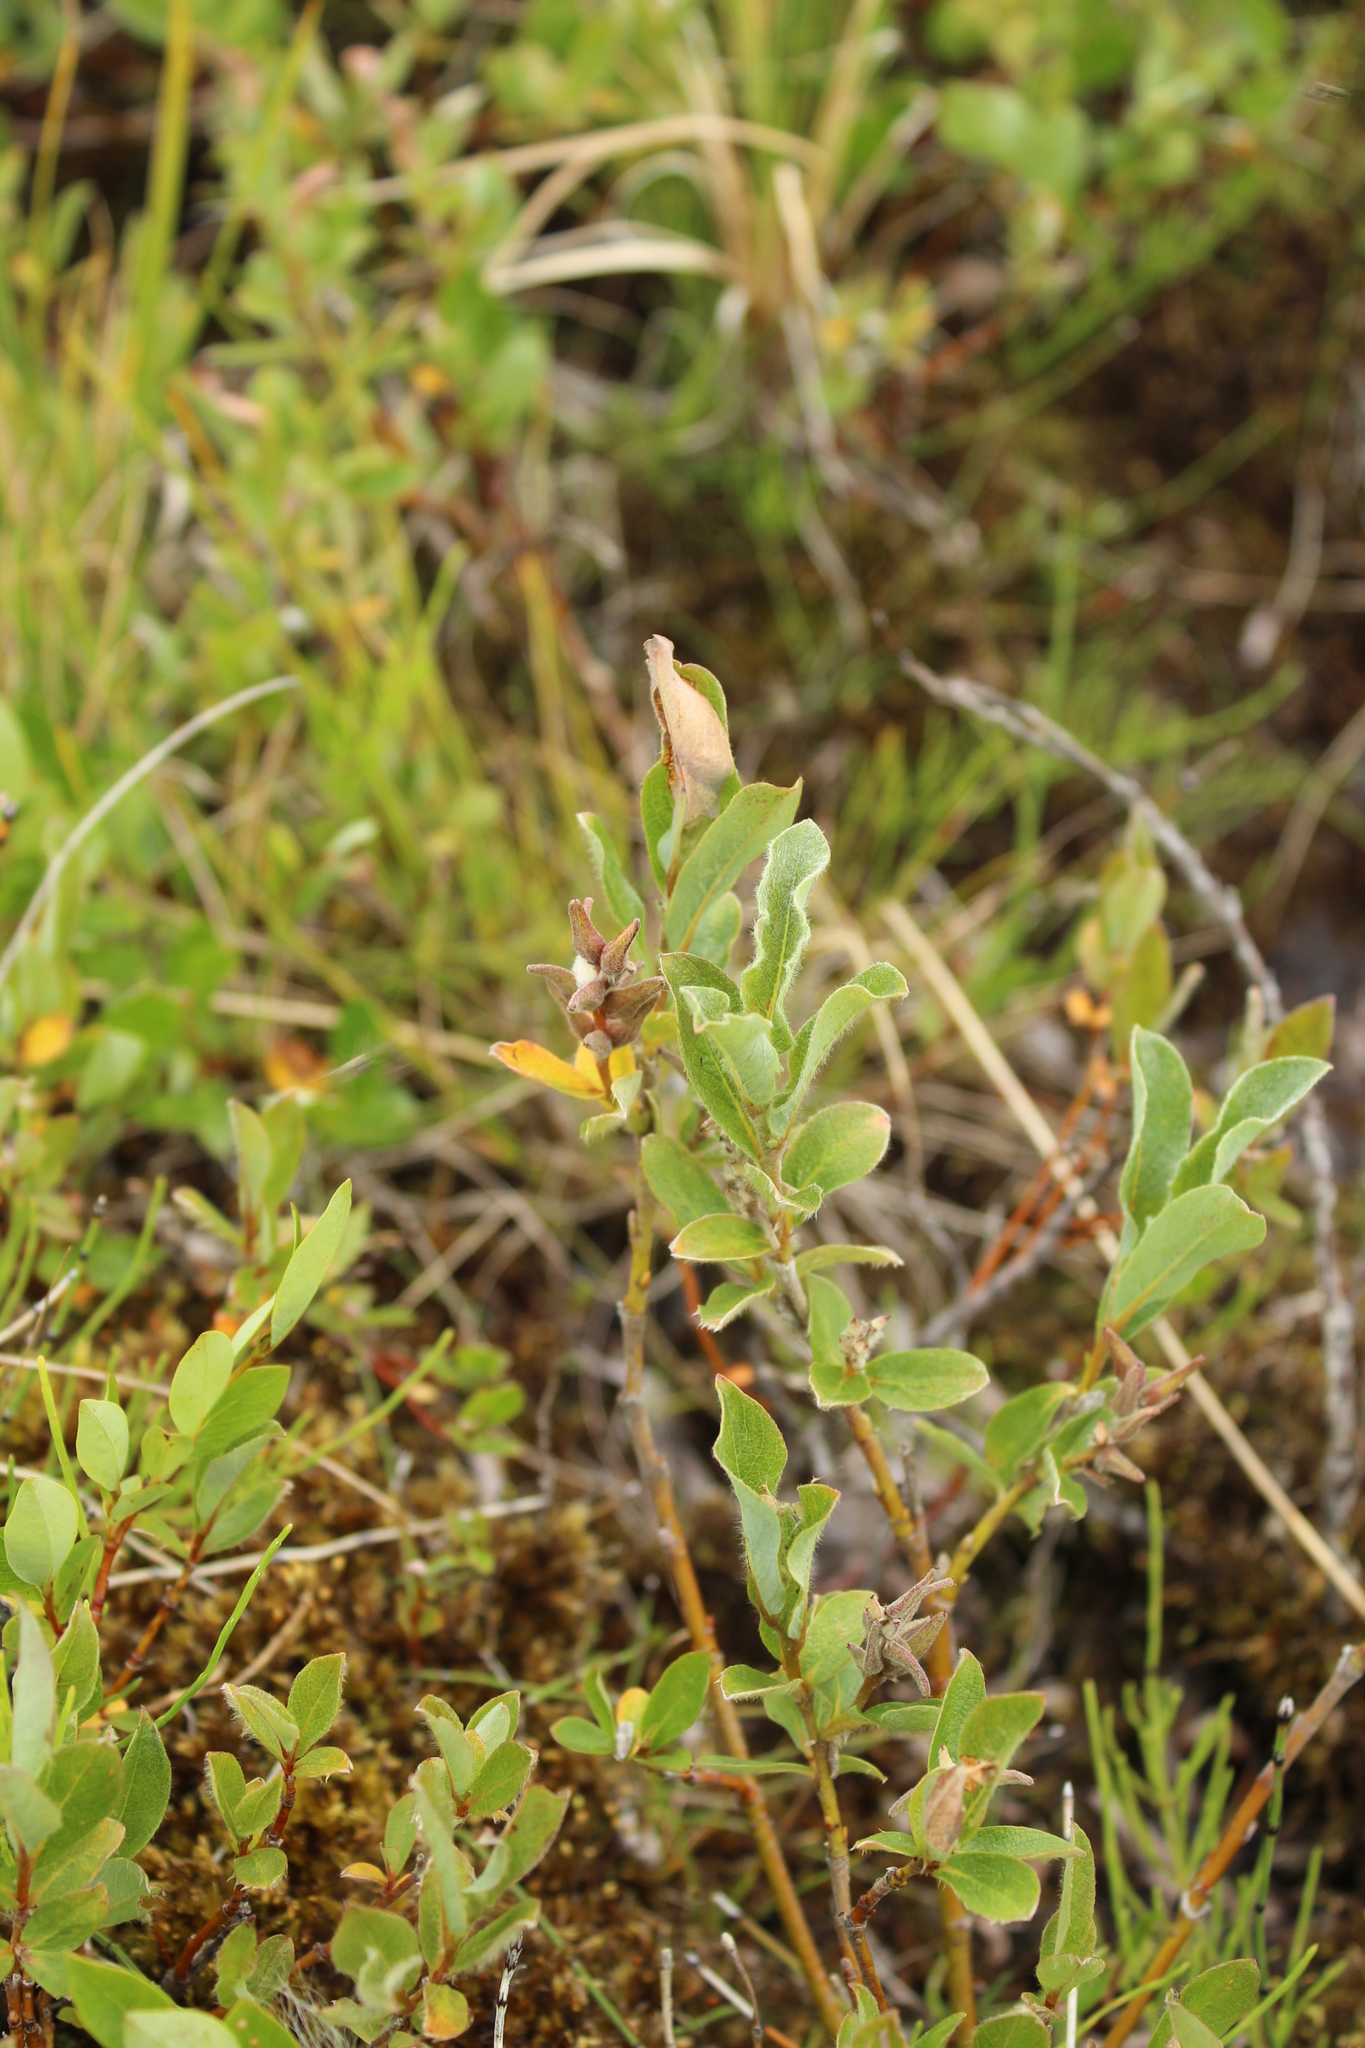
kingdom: Plantae
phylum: Tracheophyta
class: Magnoliopsida
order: Malpighiales
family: Salicaceae
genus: Salix
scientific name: Salix glauca
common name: Glaucous willow
